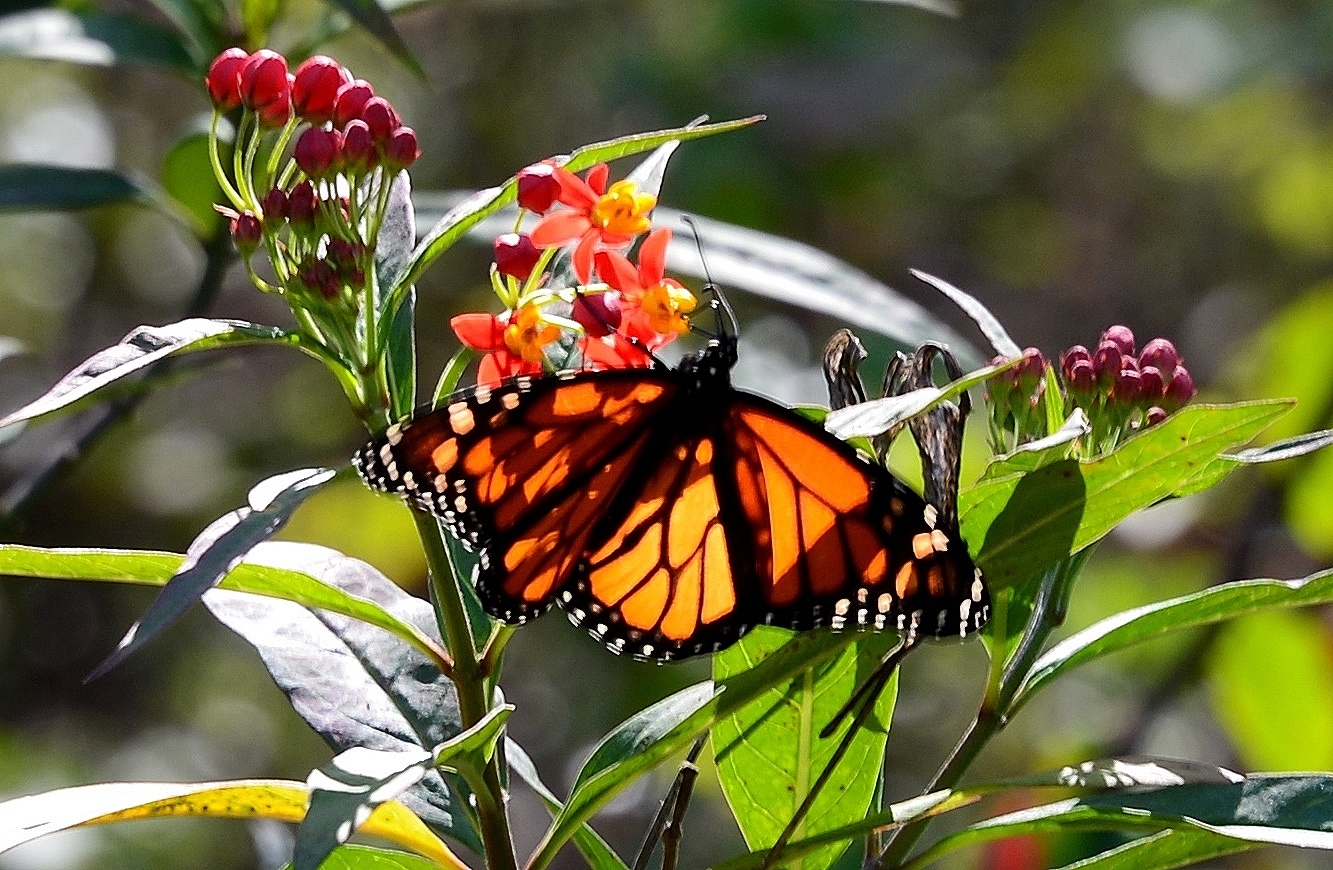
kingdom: Animalia
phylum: Arthropoda
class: Insecta
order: Lepidoptera
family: Nymphalidae
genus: Danaus
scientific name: Danaus plexippus
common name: Monarch
